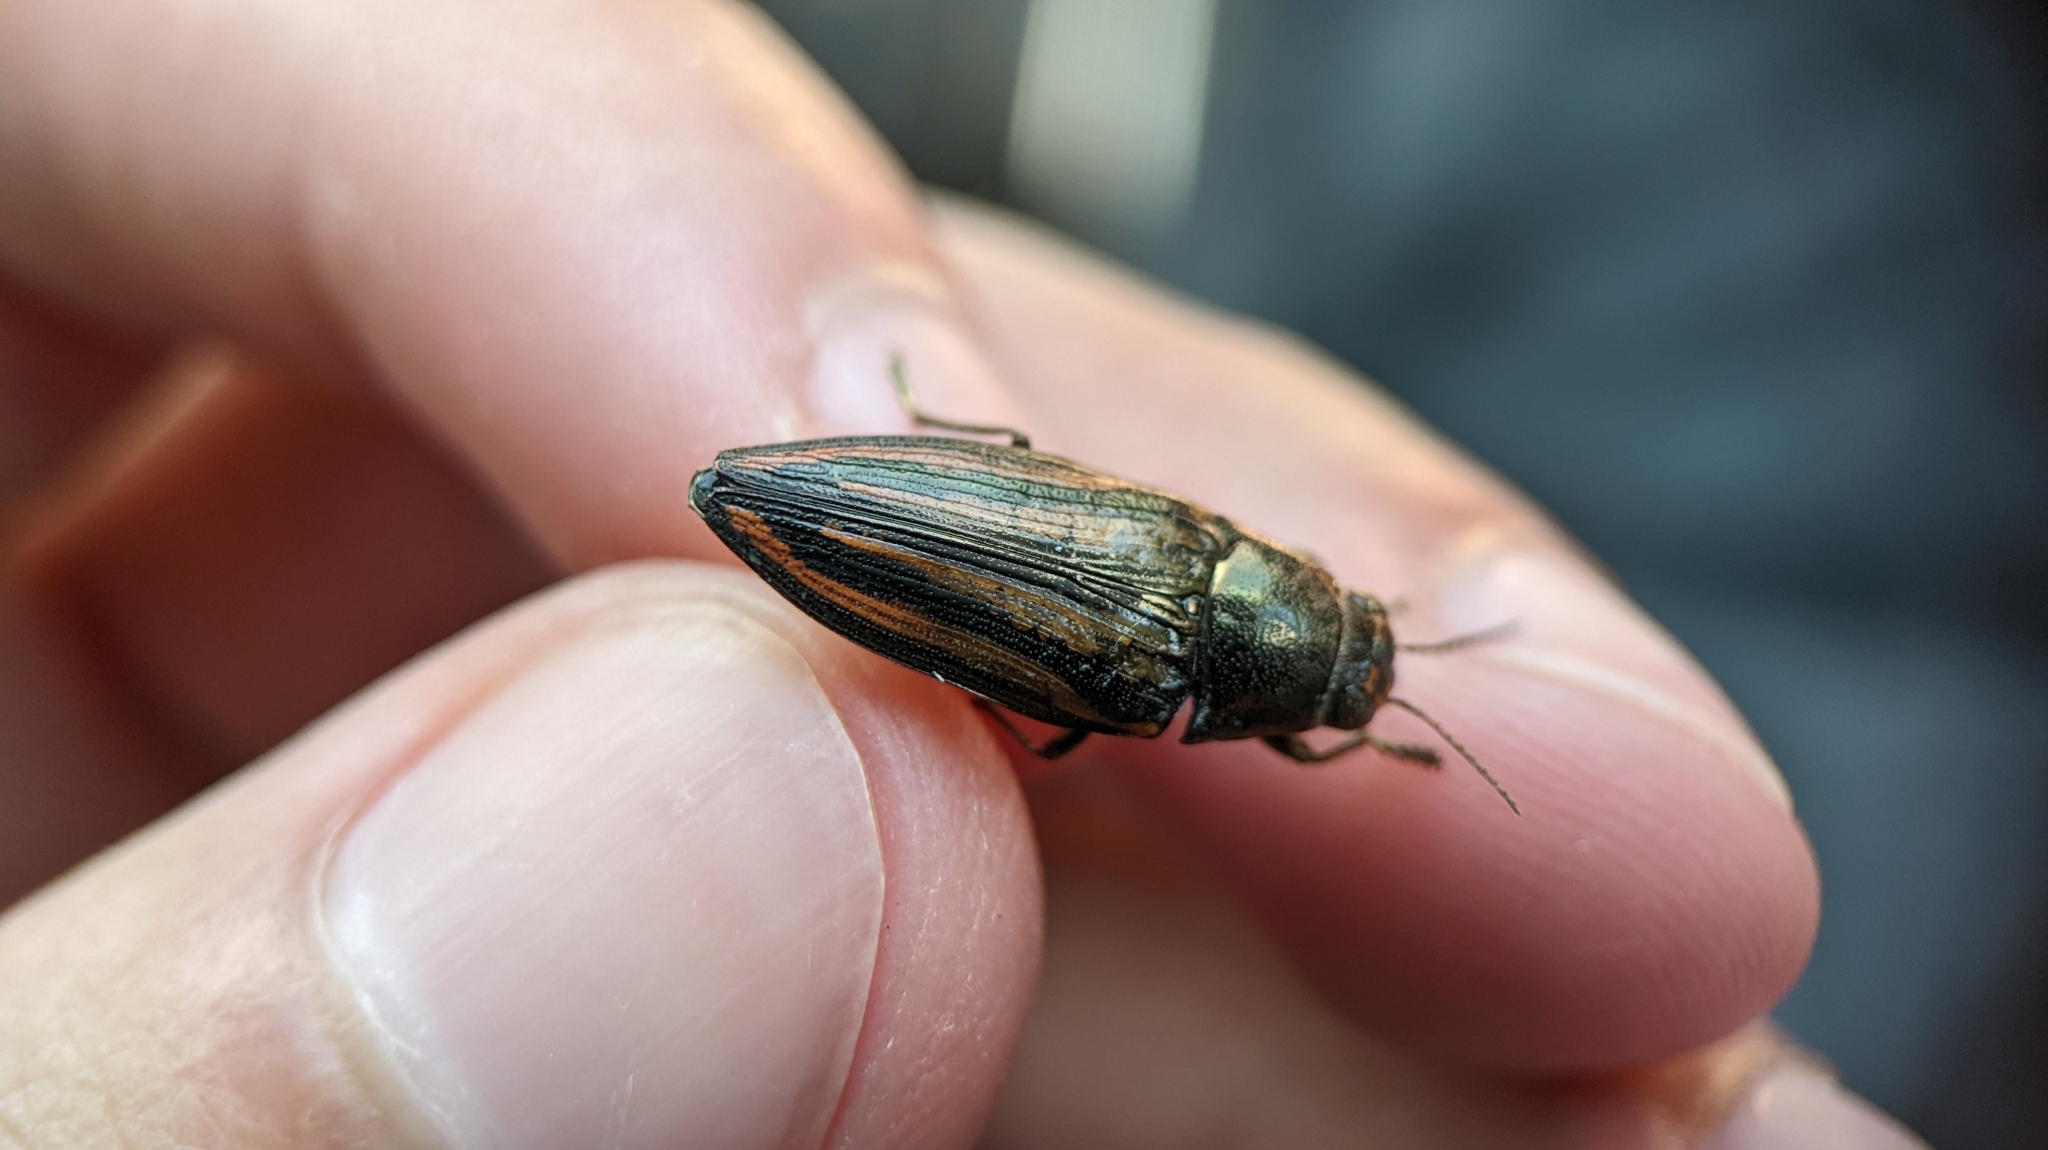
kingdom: Animalia
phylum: Arthropoda
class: Insecta
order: Coleoptera
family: Buprestidae
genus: Buprestis
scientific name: Buprestis lineata
